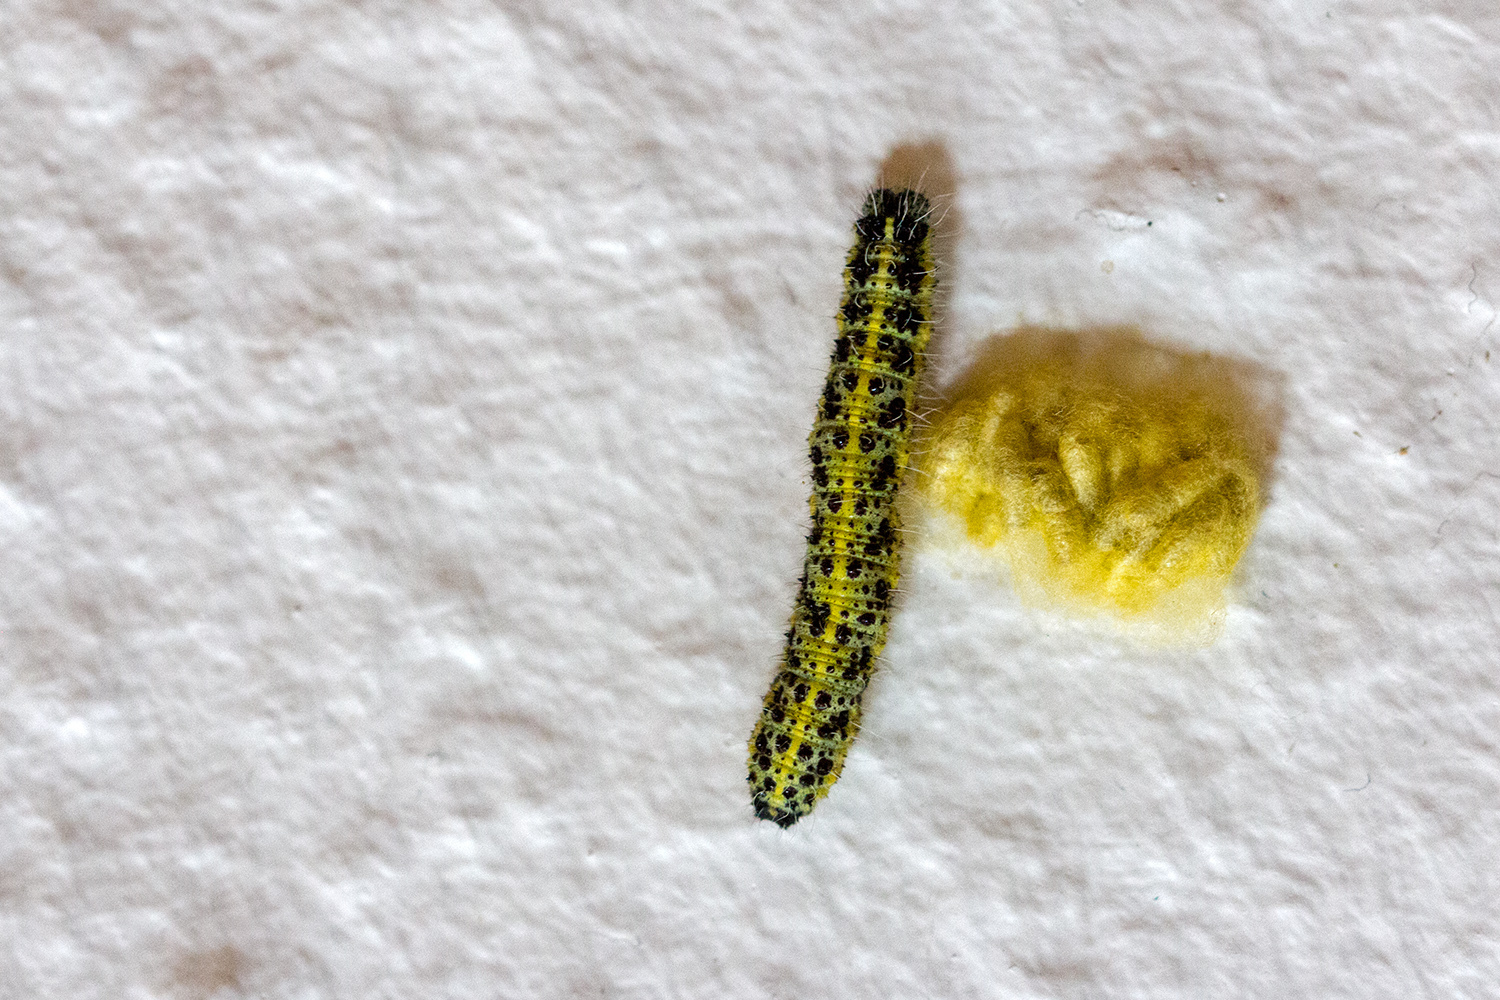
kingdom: Animalia
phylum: Arthropoda
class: Insecta
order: Lepidoptera
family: Pieridae
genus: Pieris
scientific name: Pieris brassicae
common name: Large white
